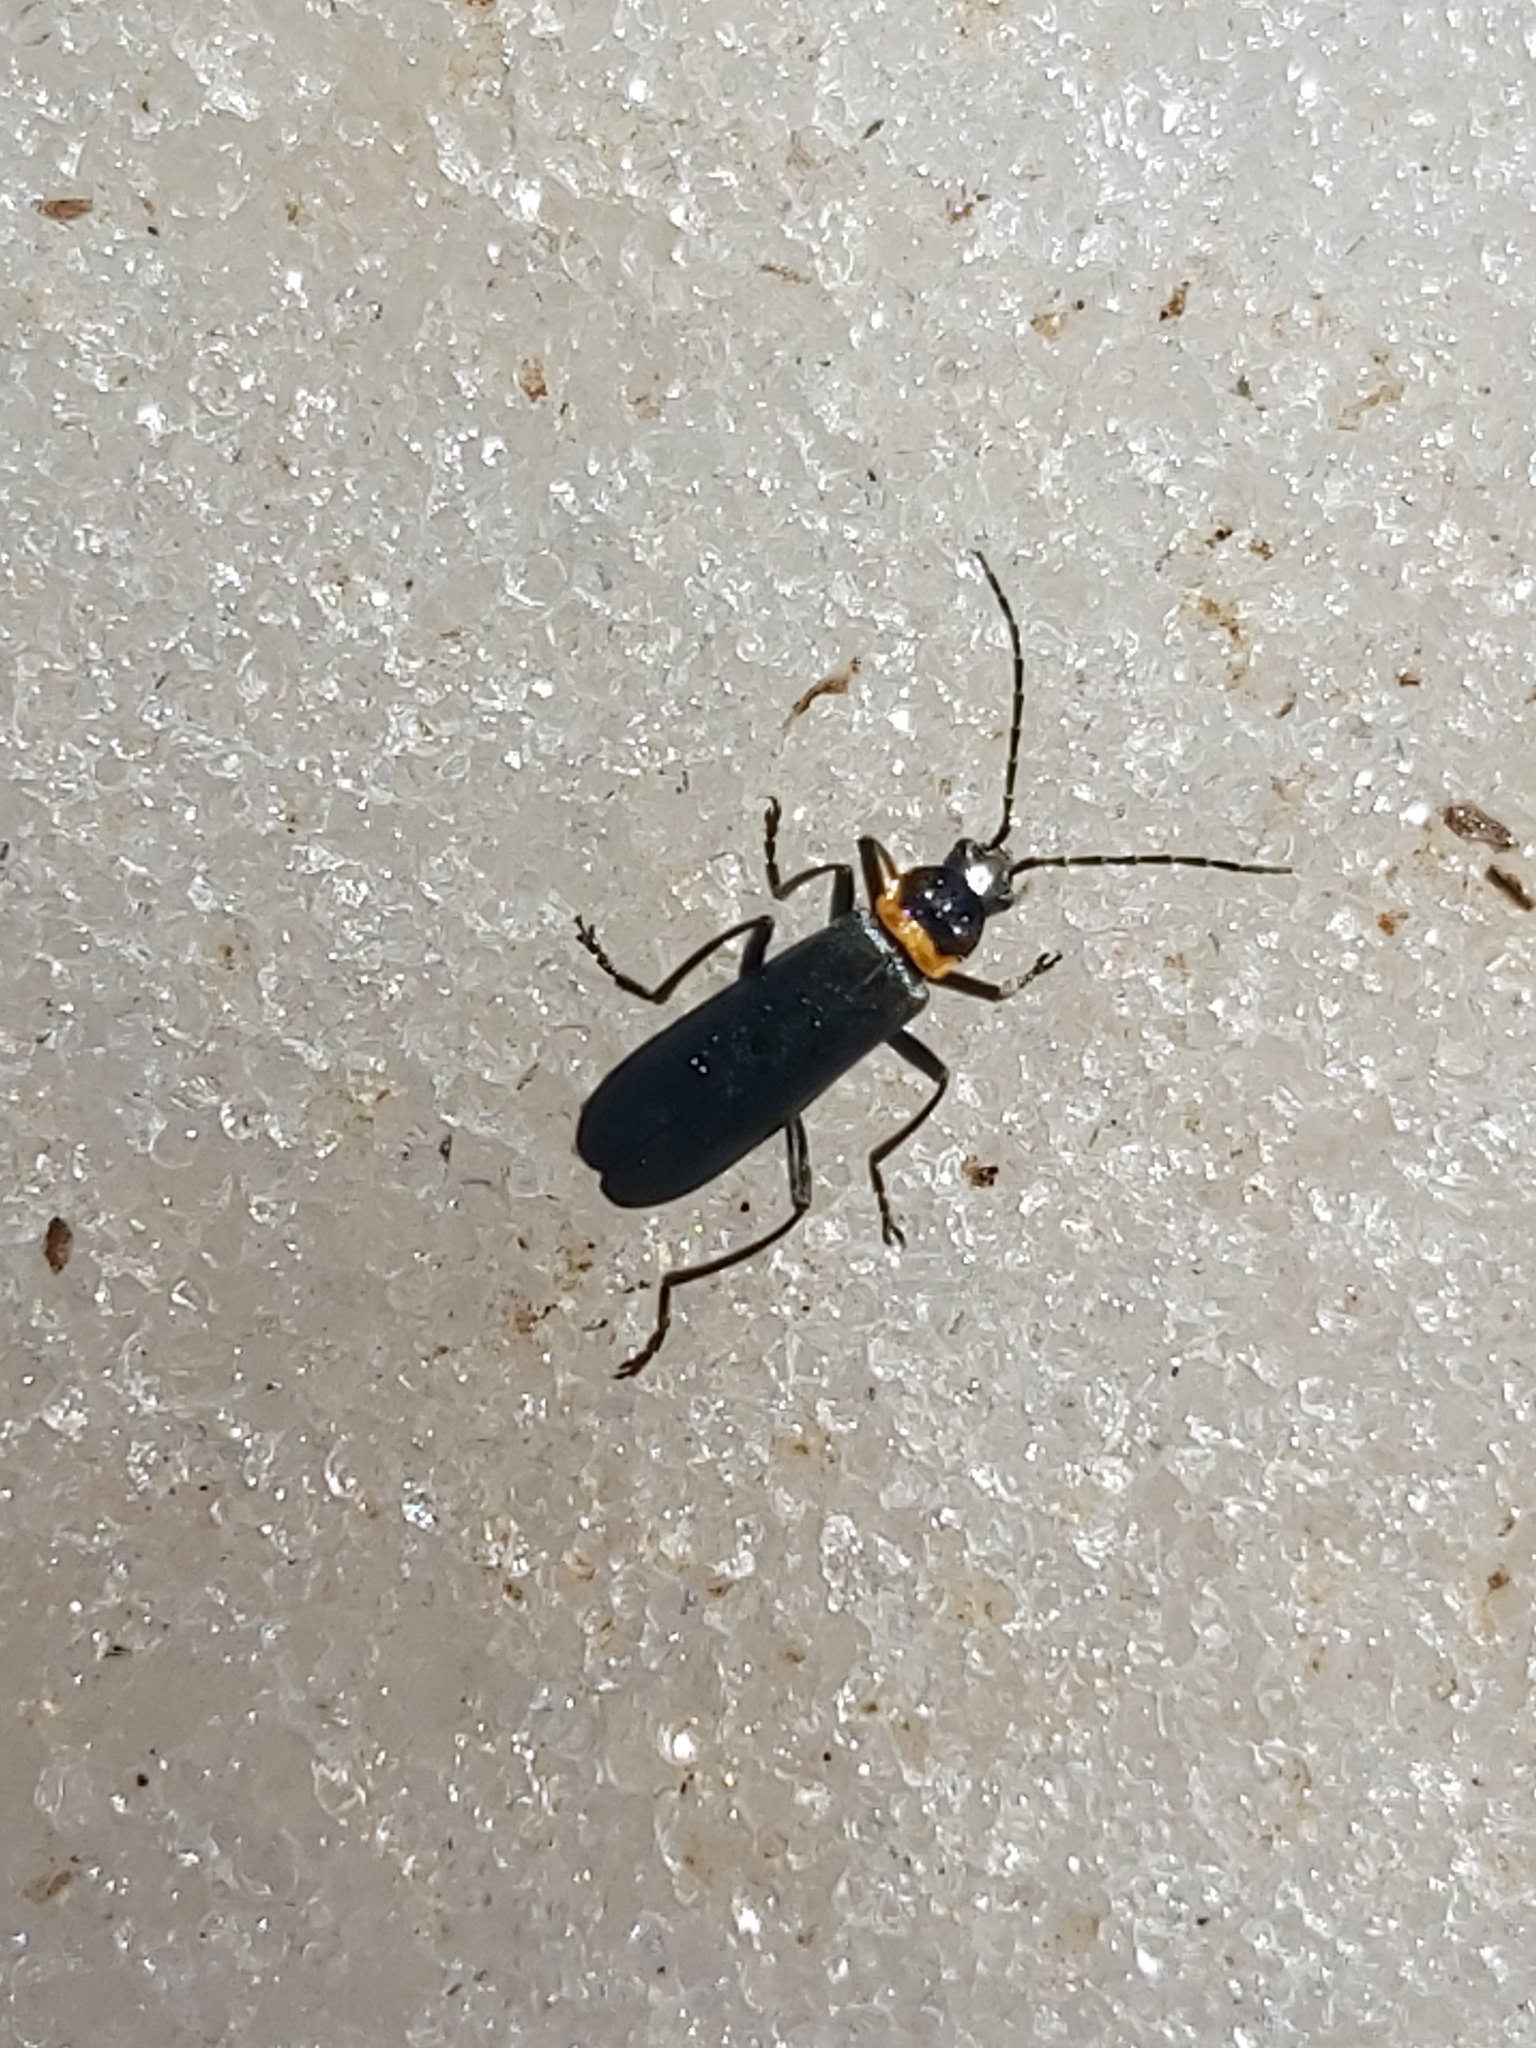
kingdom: Animalia
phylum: Arthropoda
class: Insecta
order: Coleoptera
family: Cantharidae
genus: Chauliognathus
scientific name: Chauliognathus
